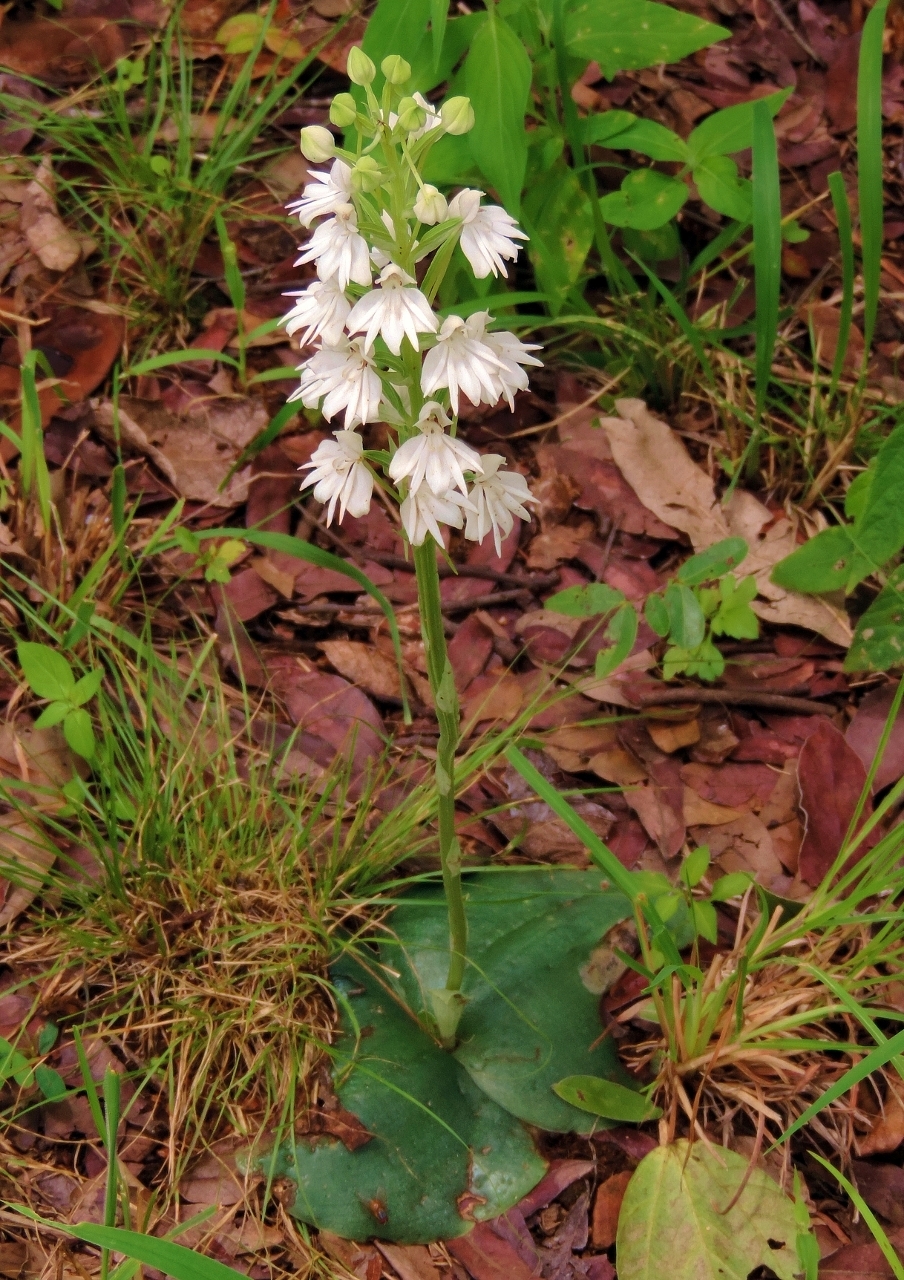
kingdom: Plantae
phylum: Tracheophyta
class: Liliopsida
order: Asparagales
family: Orchidaceae
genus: Habenaria
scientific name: Habenaria stylites
